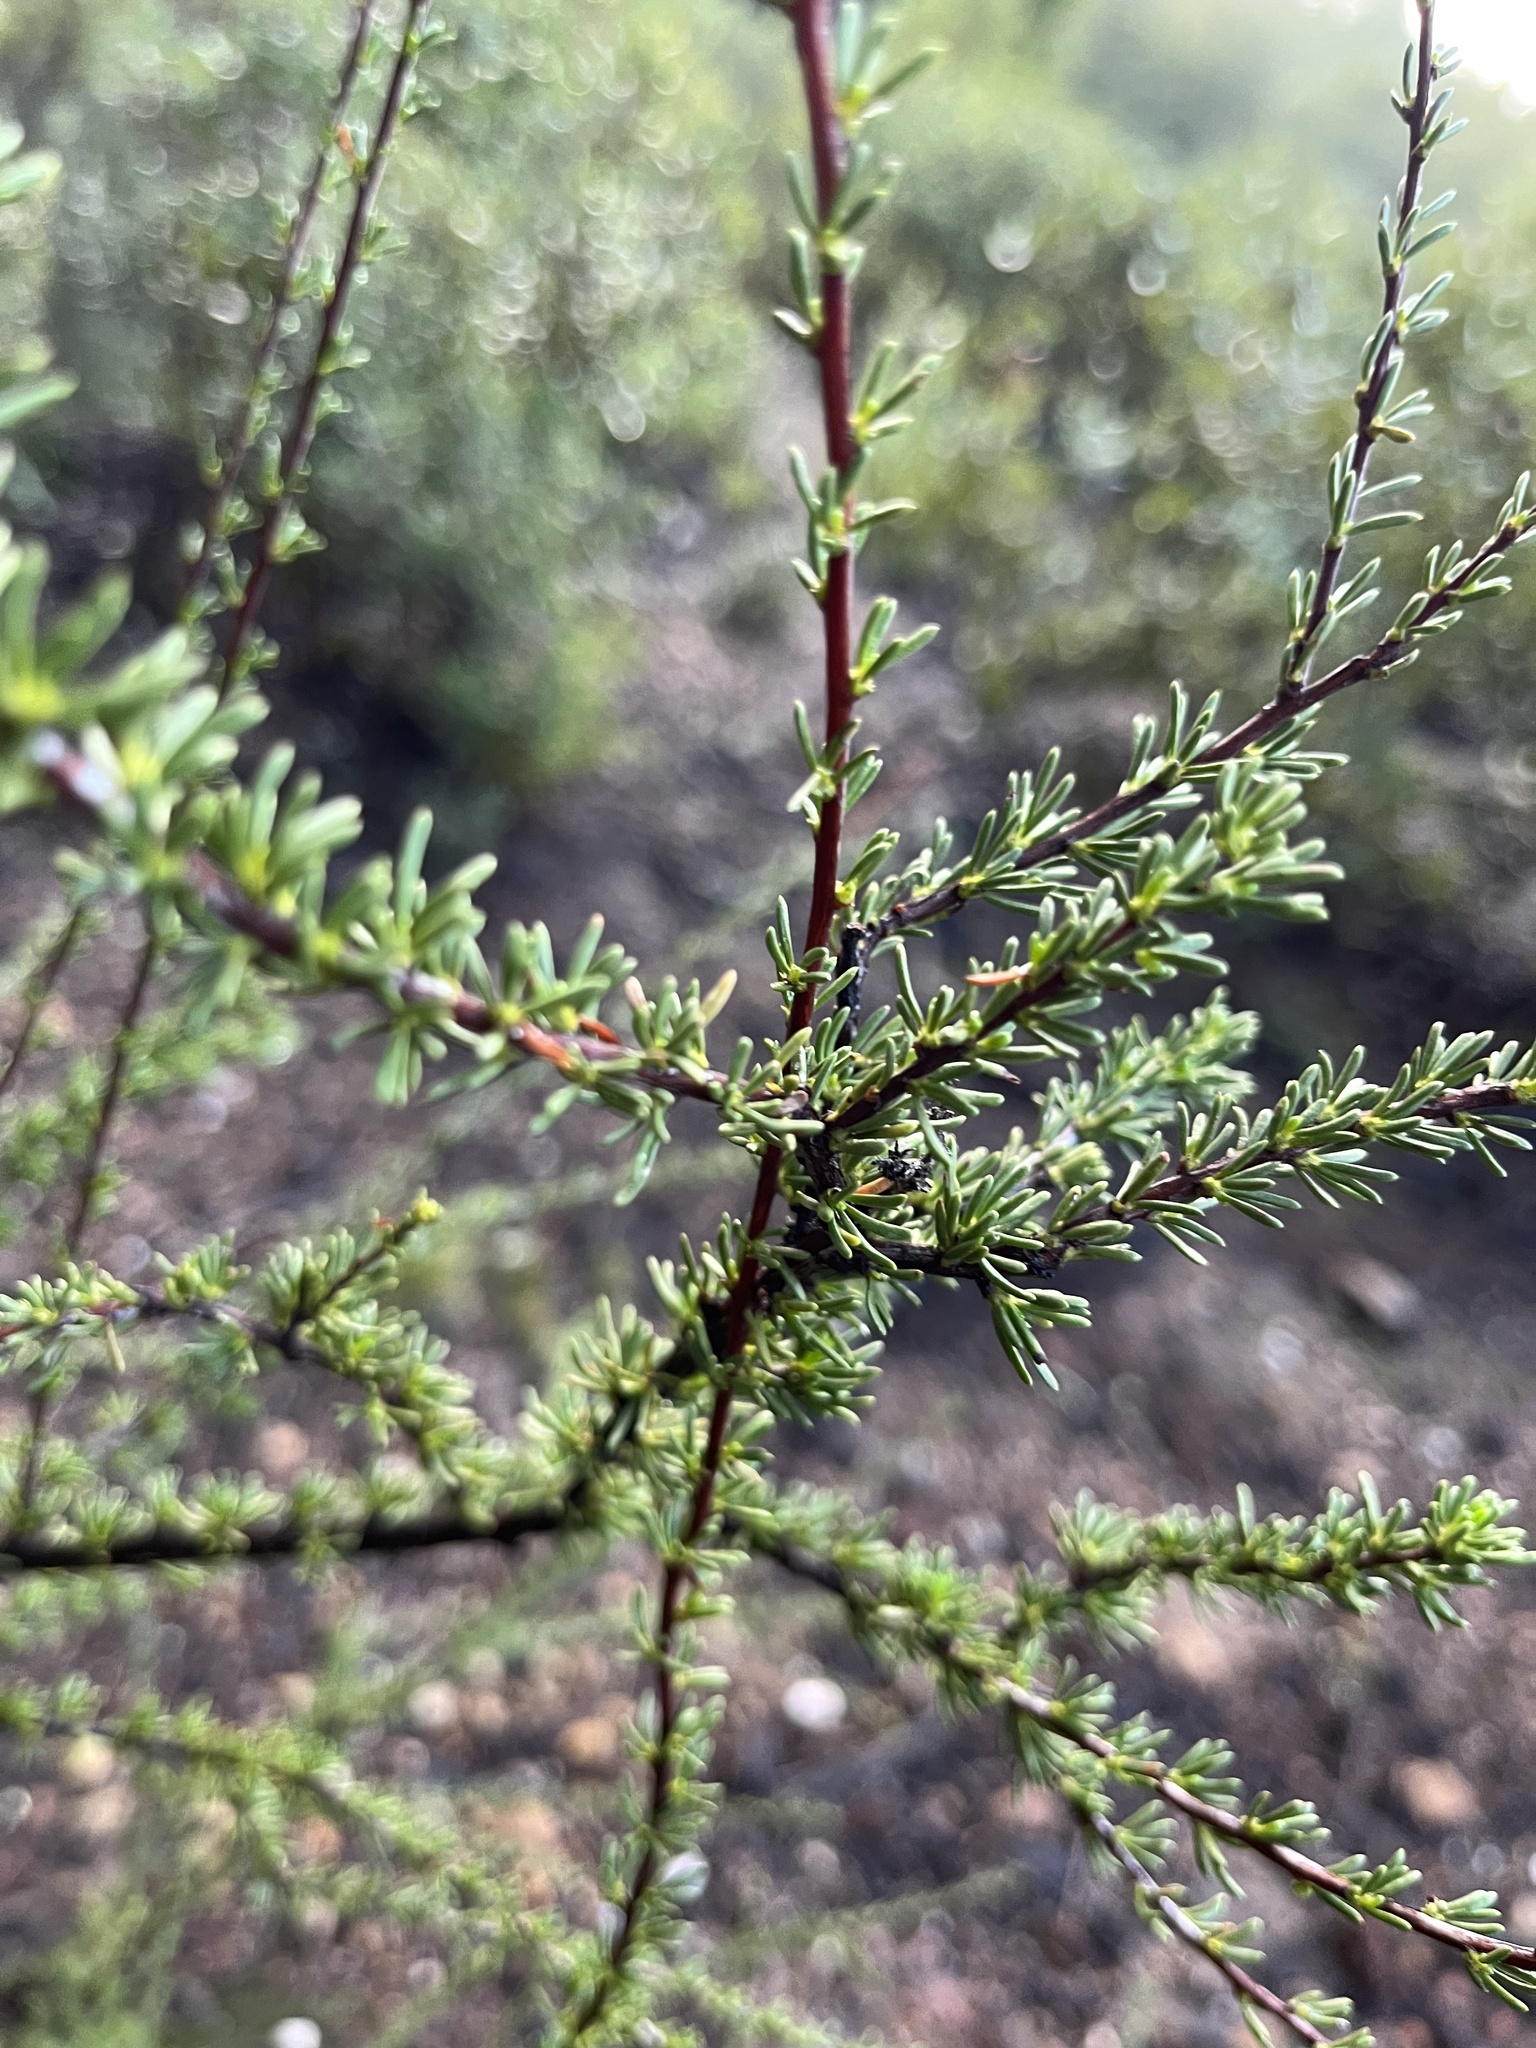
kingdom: Plantae
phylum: Tracheophyta
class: Magnoliopsida
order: Rosales
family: Rosaceae
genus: Adenostoma
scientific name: Adenostoma fasciculatum
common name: Chamise
